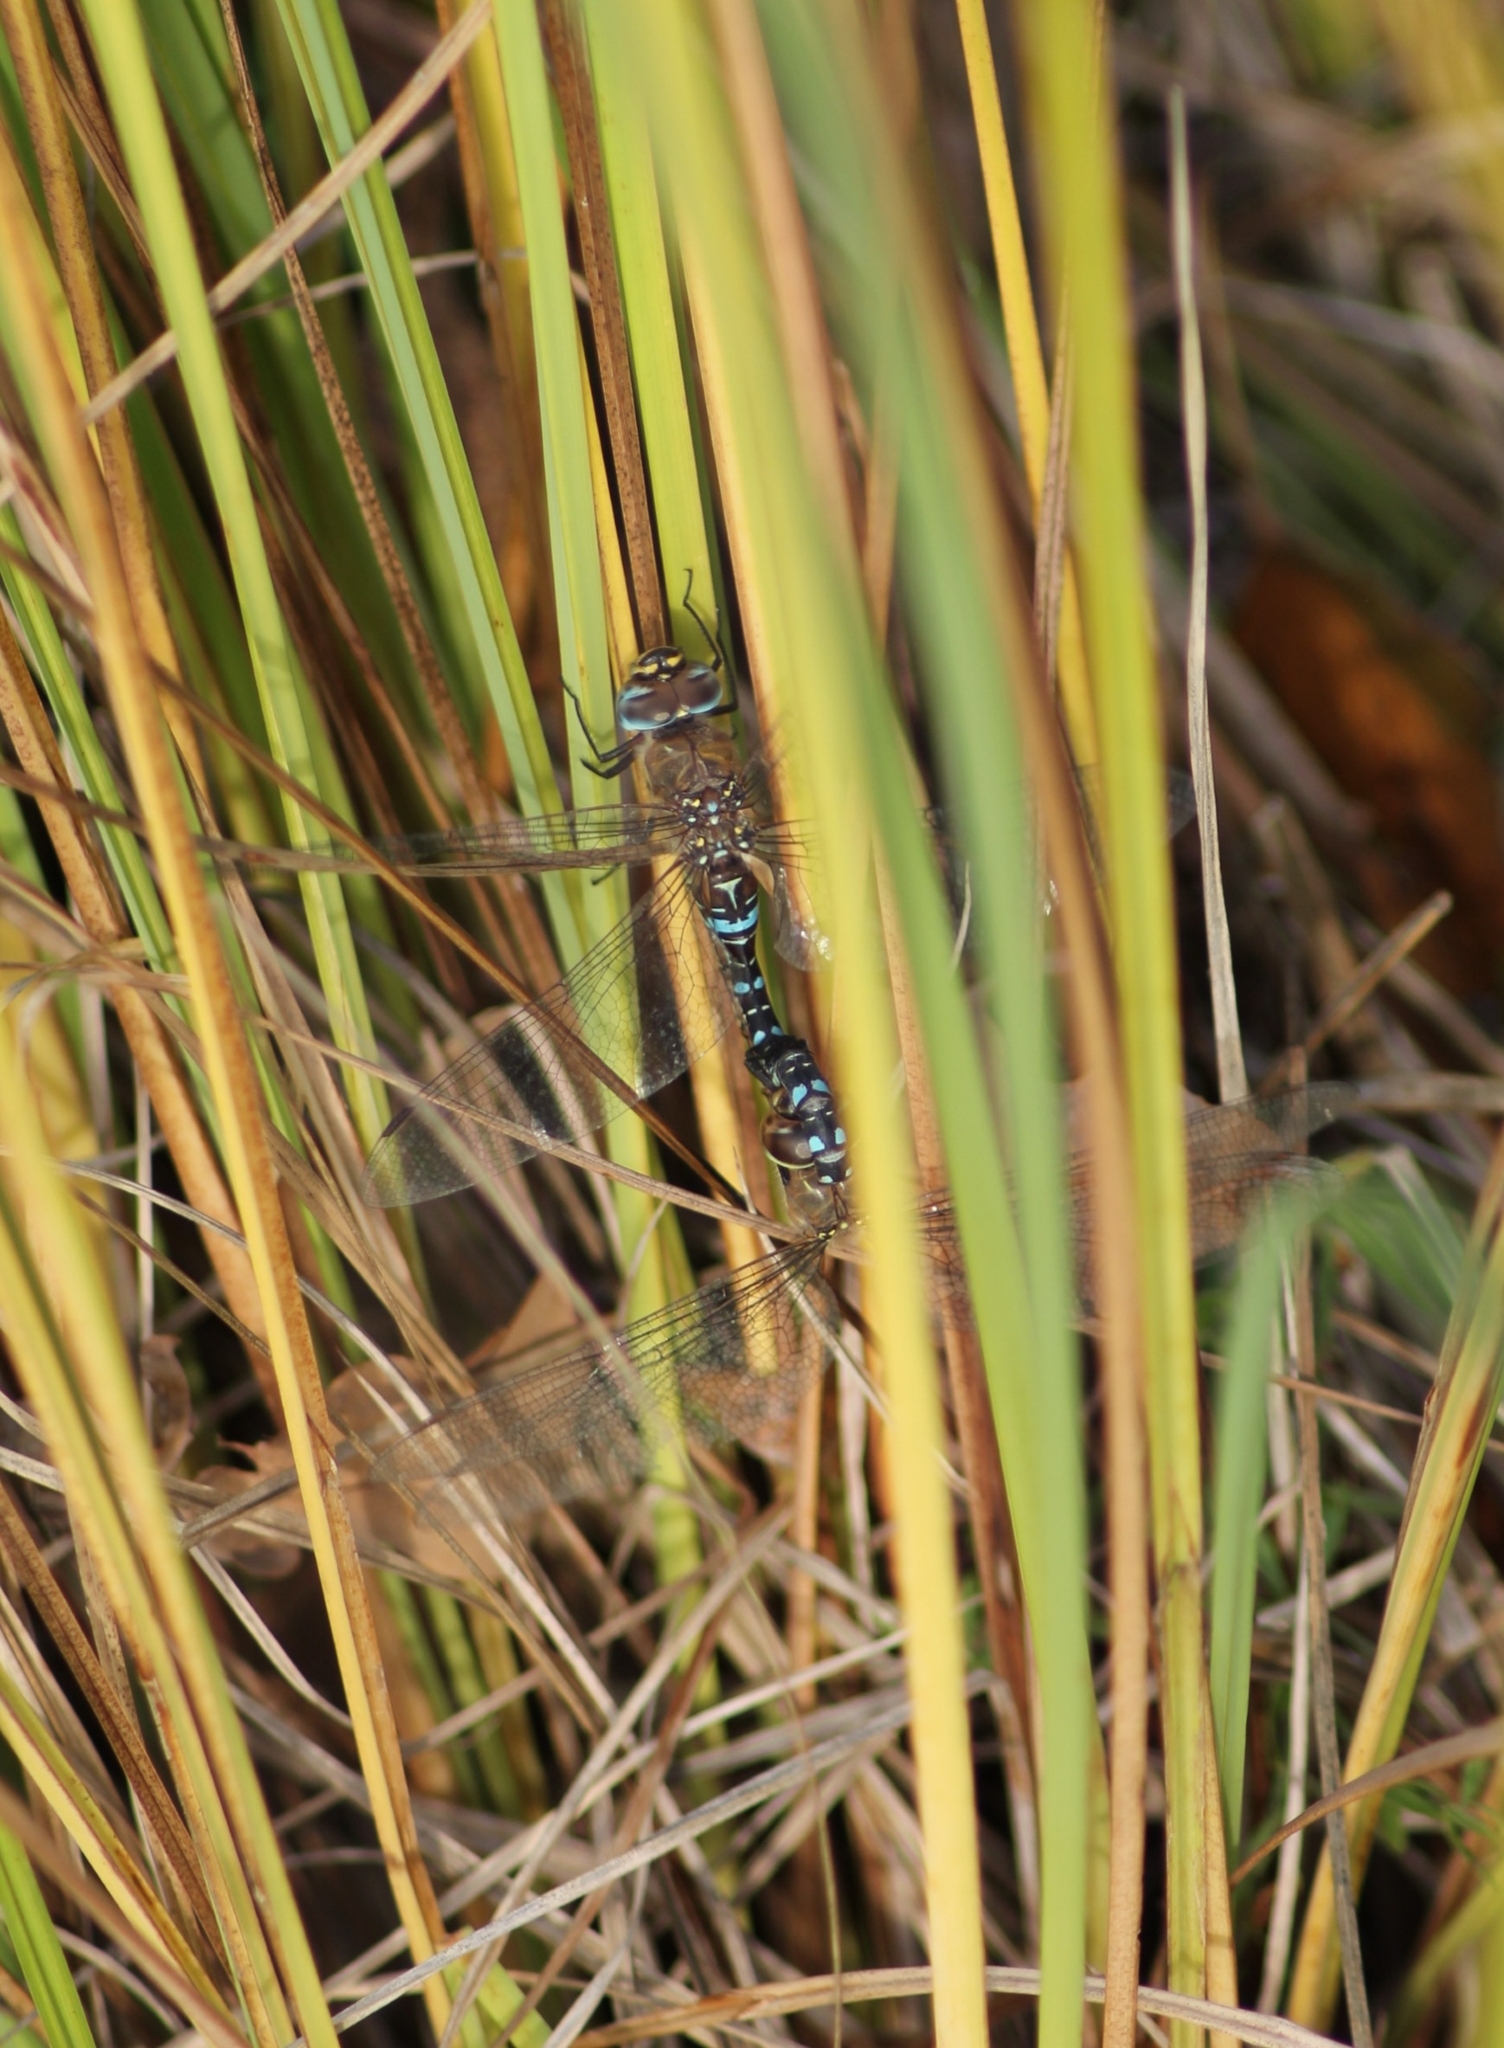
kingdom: Animalia
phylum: Arthropoda
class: Insecta
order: Odonata
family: Aeshnidae
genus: Aeshna
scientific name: Aeshna mixta
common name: Migrant hawker
